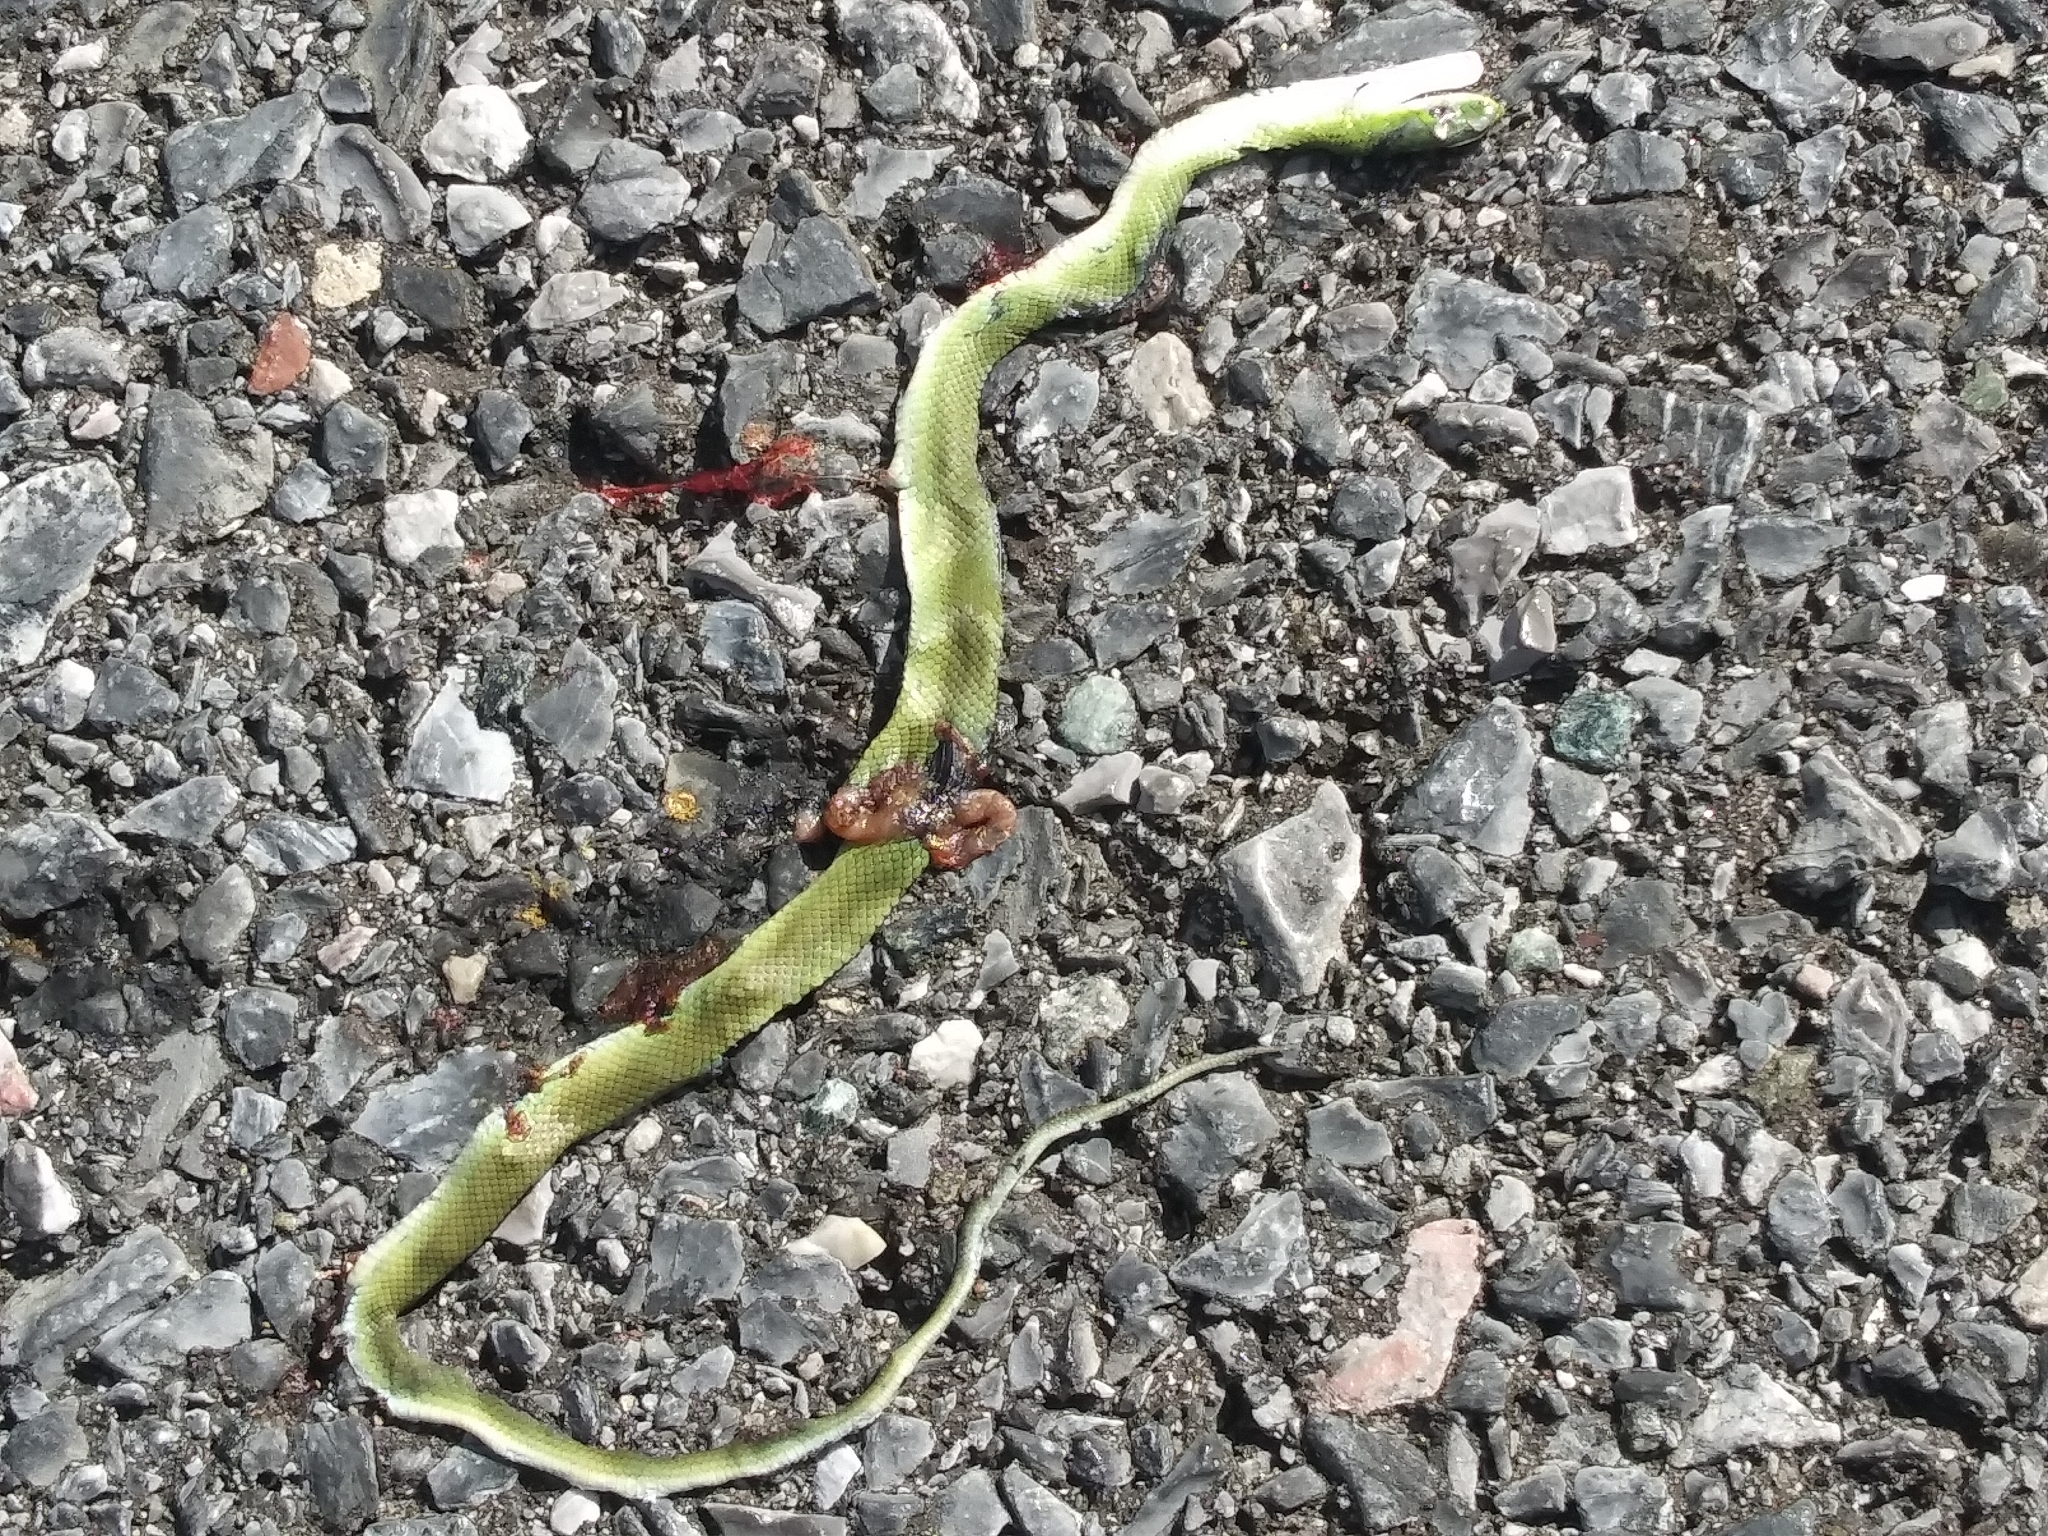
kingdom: Animalia
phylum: Chordata
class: Squamata
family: Colubridae
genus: Opheodrys
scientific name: Opheodrys aestivus
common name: Rough greensnake
